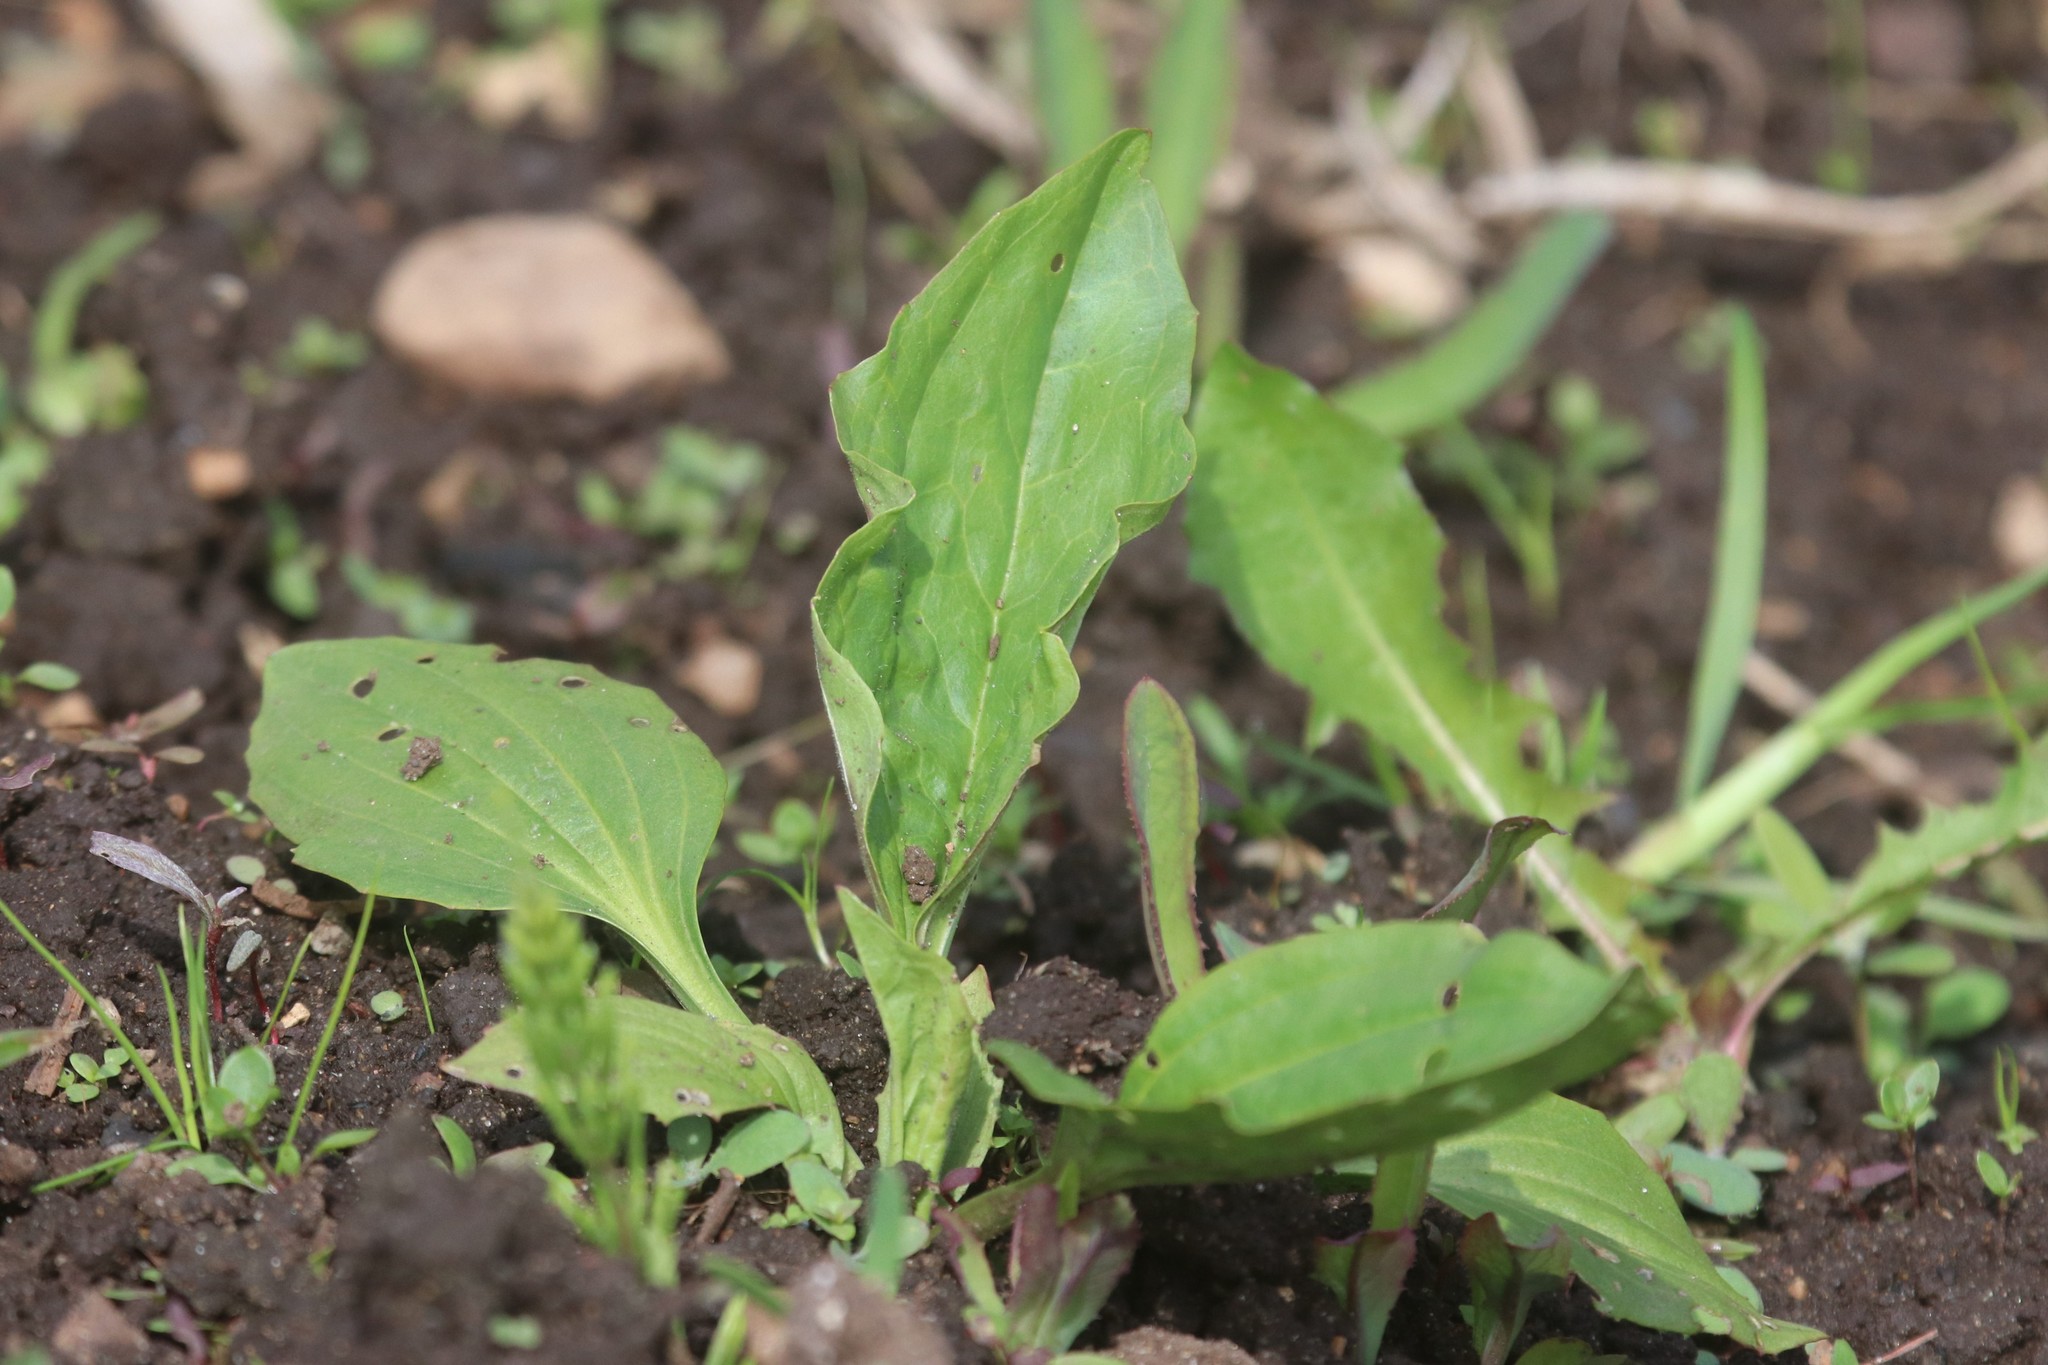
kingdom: Plantae
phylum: Tracheophyta
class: Magnoliopsida
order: Lamiales
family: Plantaginaceae
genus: Plantago
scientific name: Plantago major
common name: Common plantain
